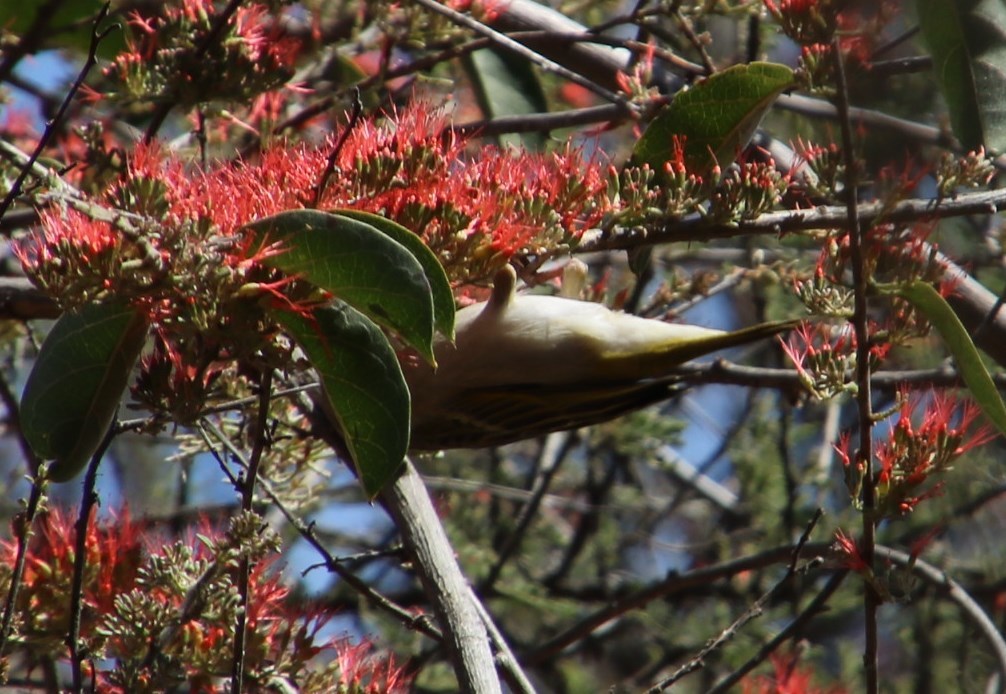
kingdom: Plantae
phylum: Tracheophyta
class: Magnoliopsida
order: Myrtales
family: Combretaceae
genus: Combretum
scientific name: Combretum microphyllum
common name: Burningbush
